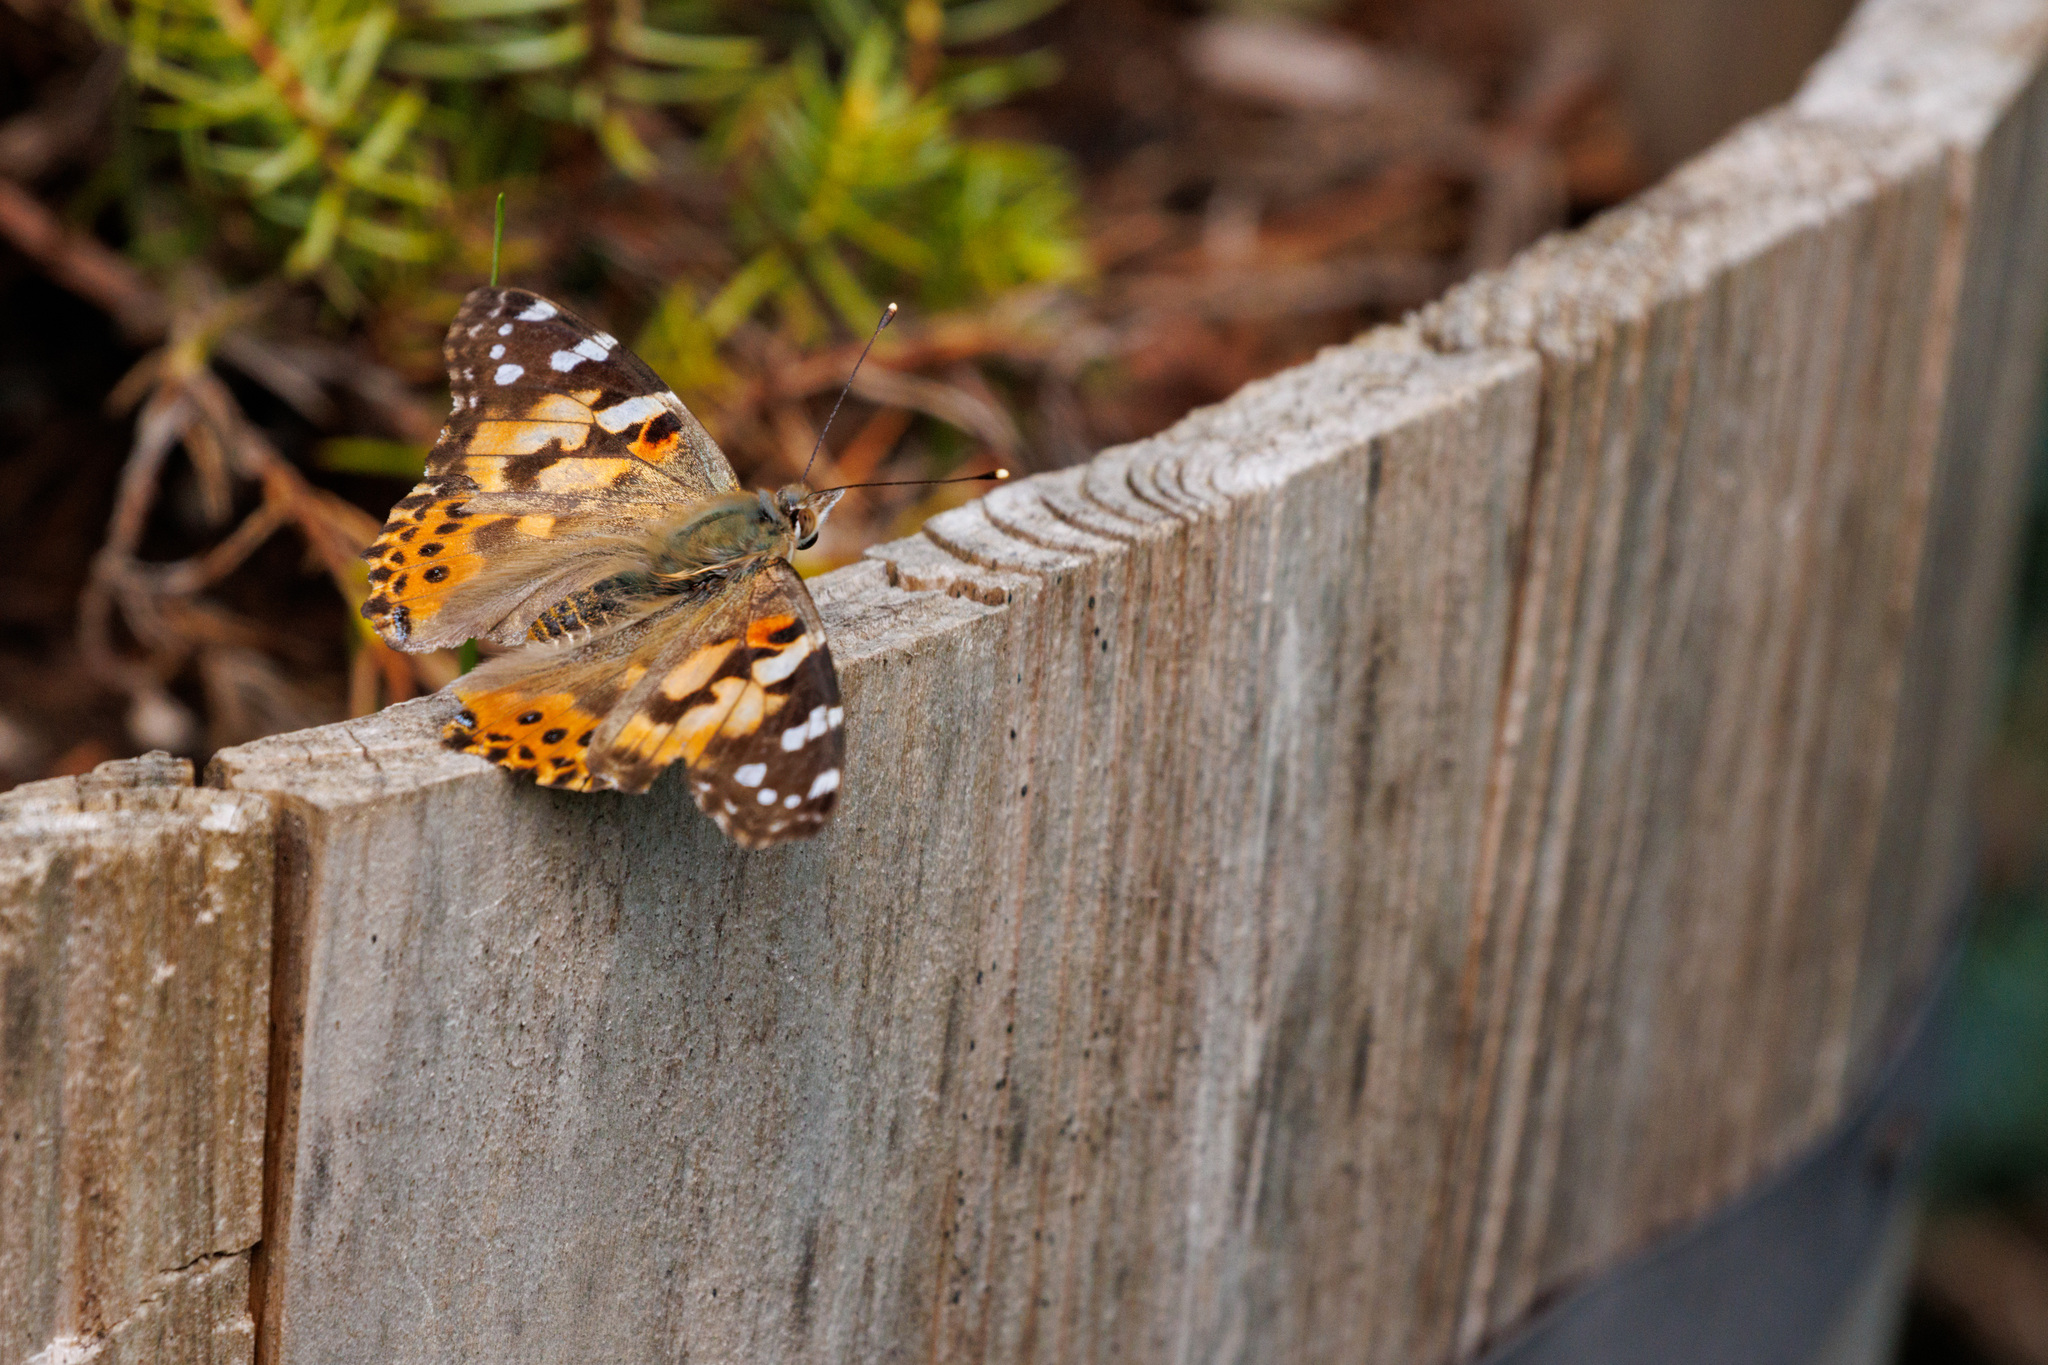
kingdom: Animalia
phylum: Arthropoda
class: Insecta
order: Lepidoptera
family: Nymphalidae
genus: Vanessa
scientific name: Vanessa cardui
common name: Painted lady
